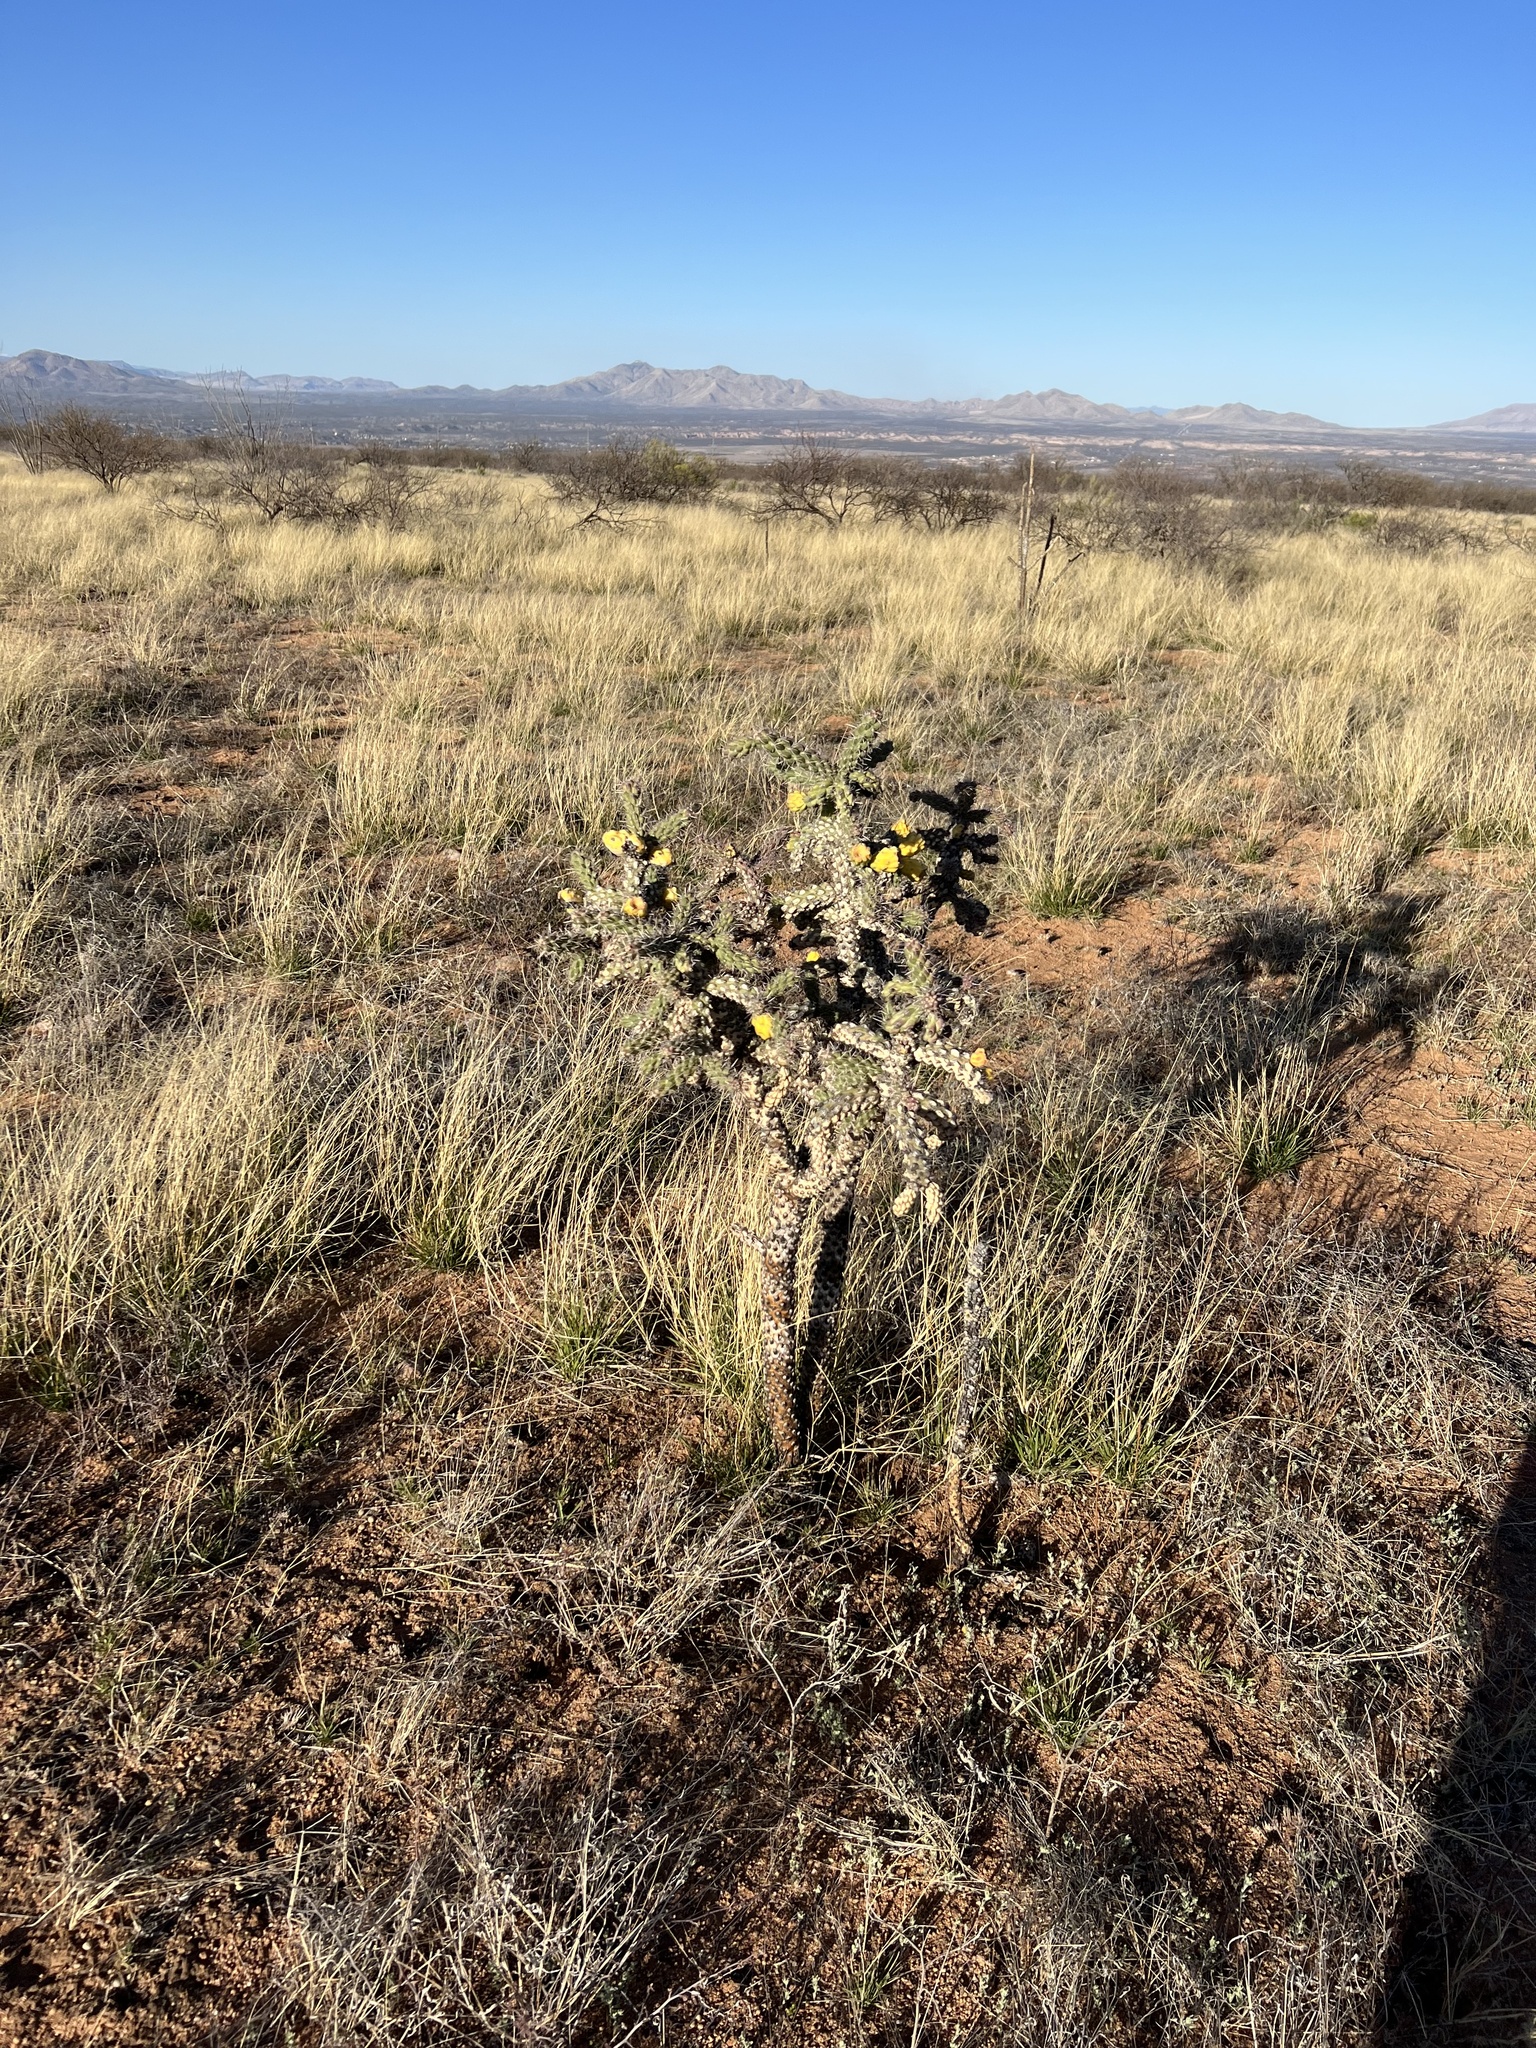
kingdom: Plantae
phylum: Tracheophyta
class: Magnoliopsida
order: Caryophyllales
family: Cactaceae
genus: Cylindropuntia
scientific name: Cylindropuntia imbricata
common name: Candelabrum cactus
